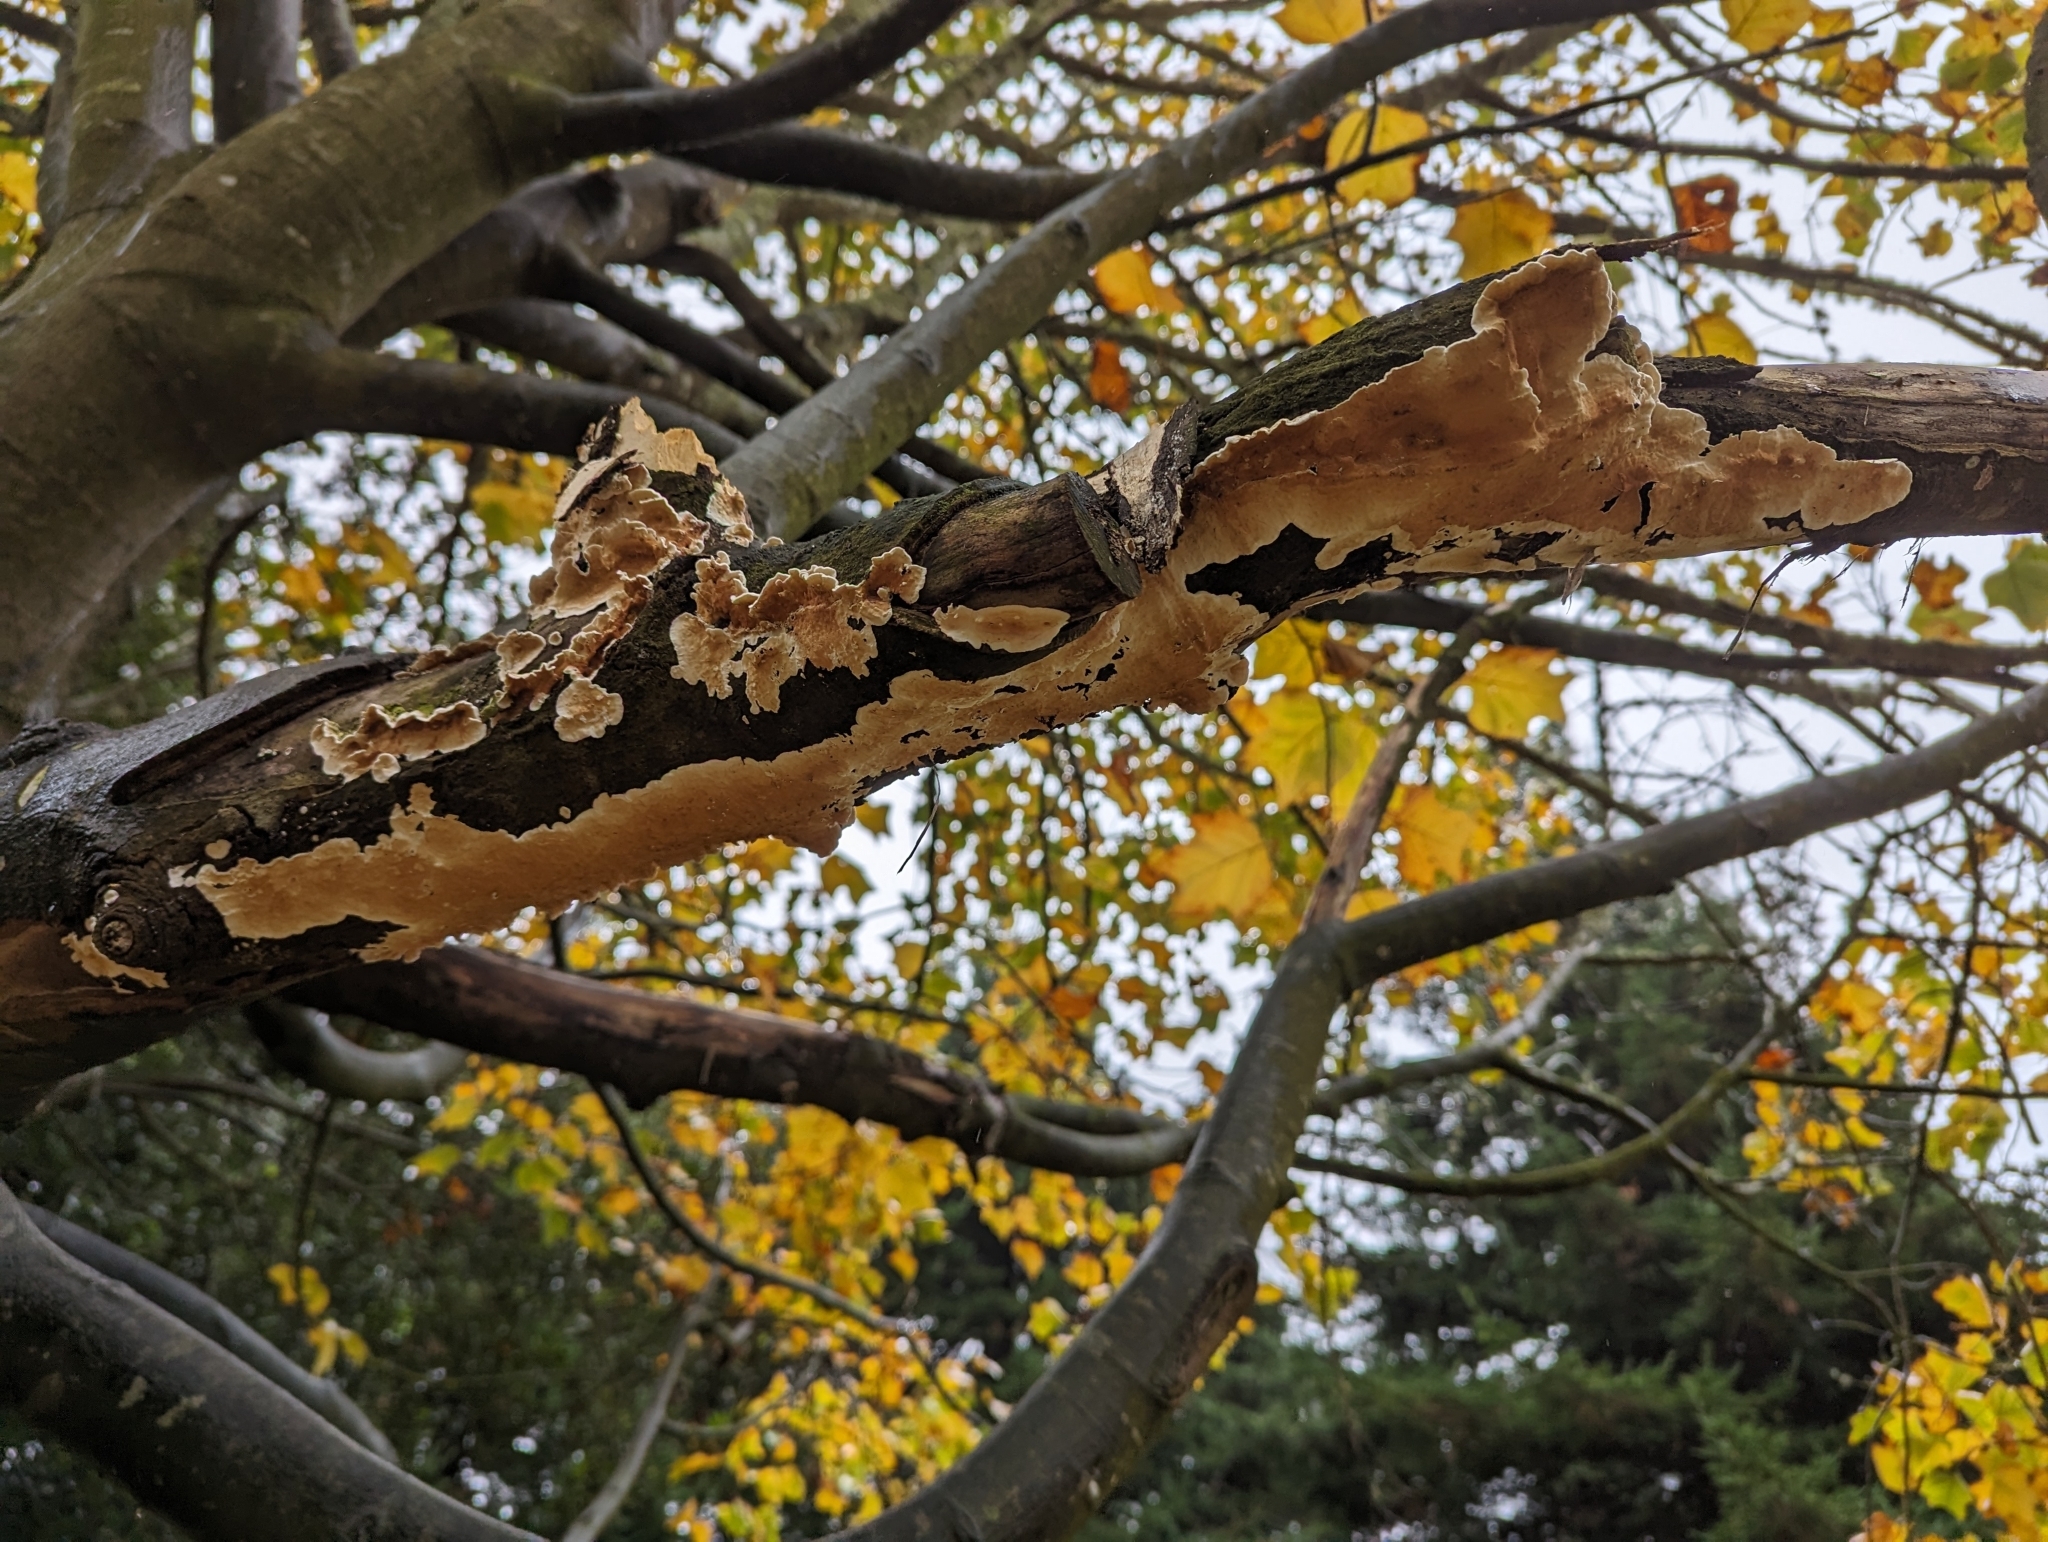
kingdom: Fungi
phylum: Basidiomycota
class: Agaricomycetes
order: Polyporales
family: Irpicaceae
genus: Byssomerulius
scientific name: Byssomerulius corium
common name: Netted crust
